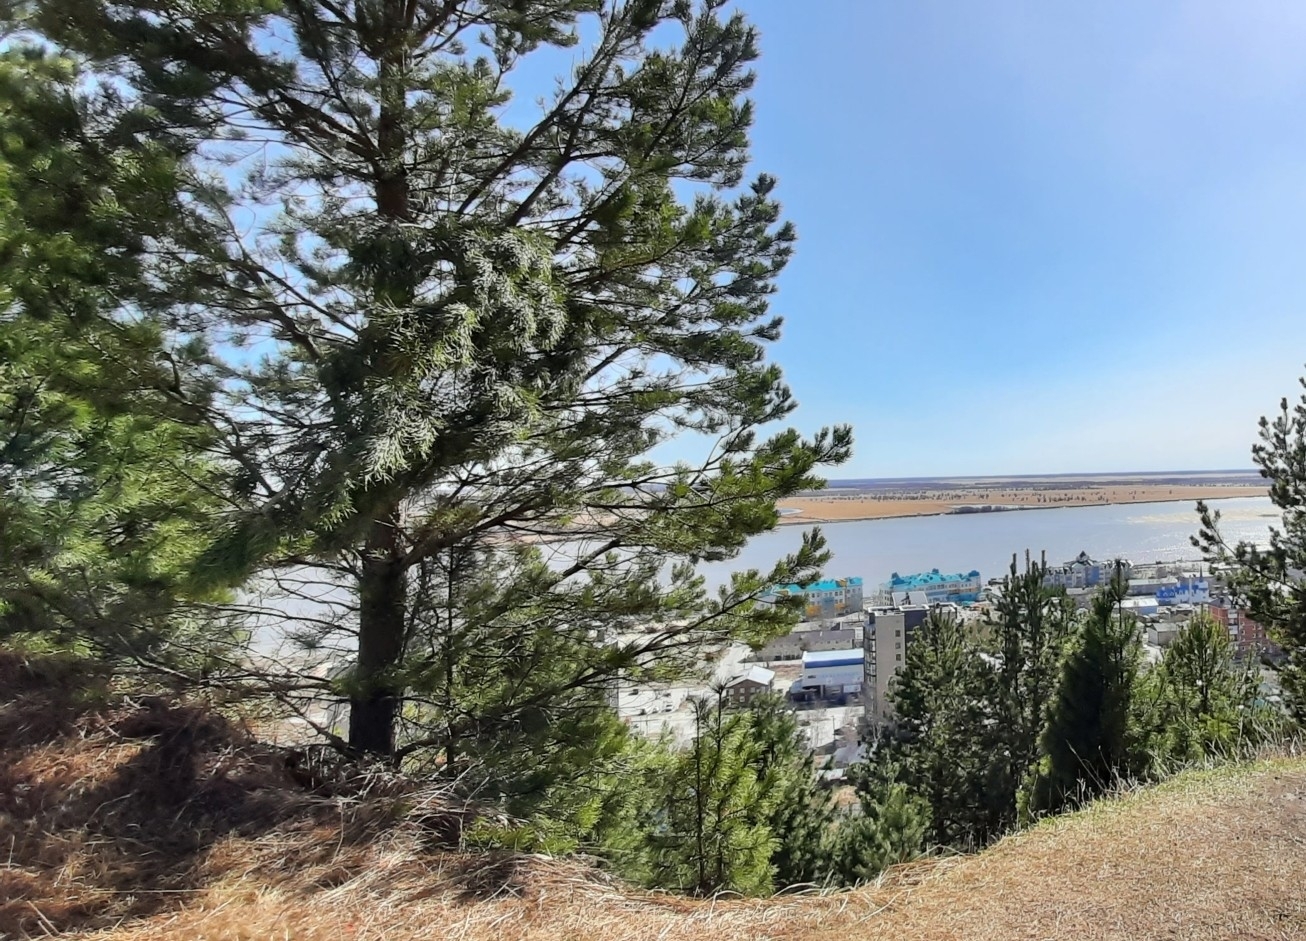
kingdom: Plantae
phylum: Tracheophyta
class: Pinopsida
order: Pinales
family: Pinaceae
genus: Pinus
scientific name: Pinus sylvestris
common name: Scots pine
